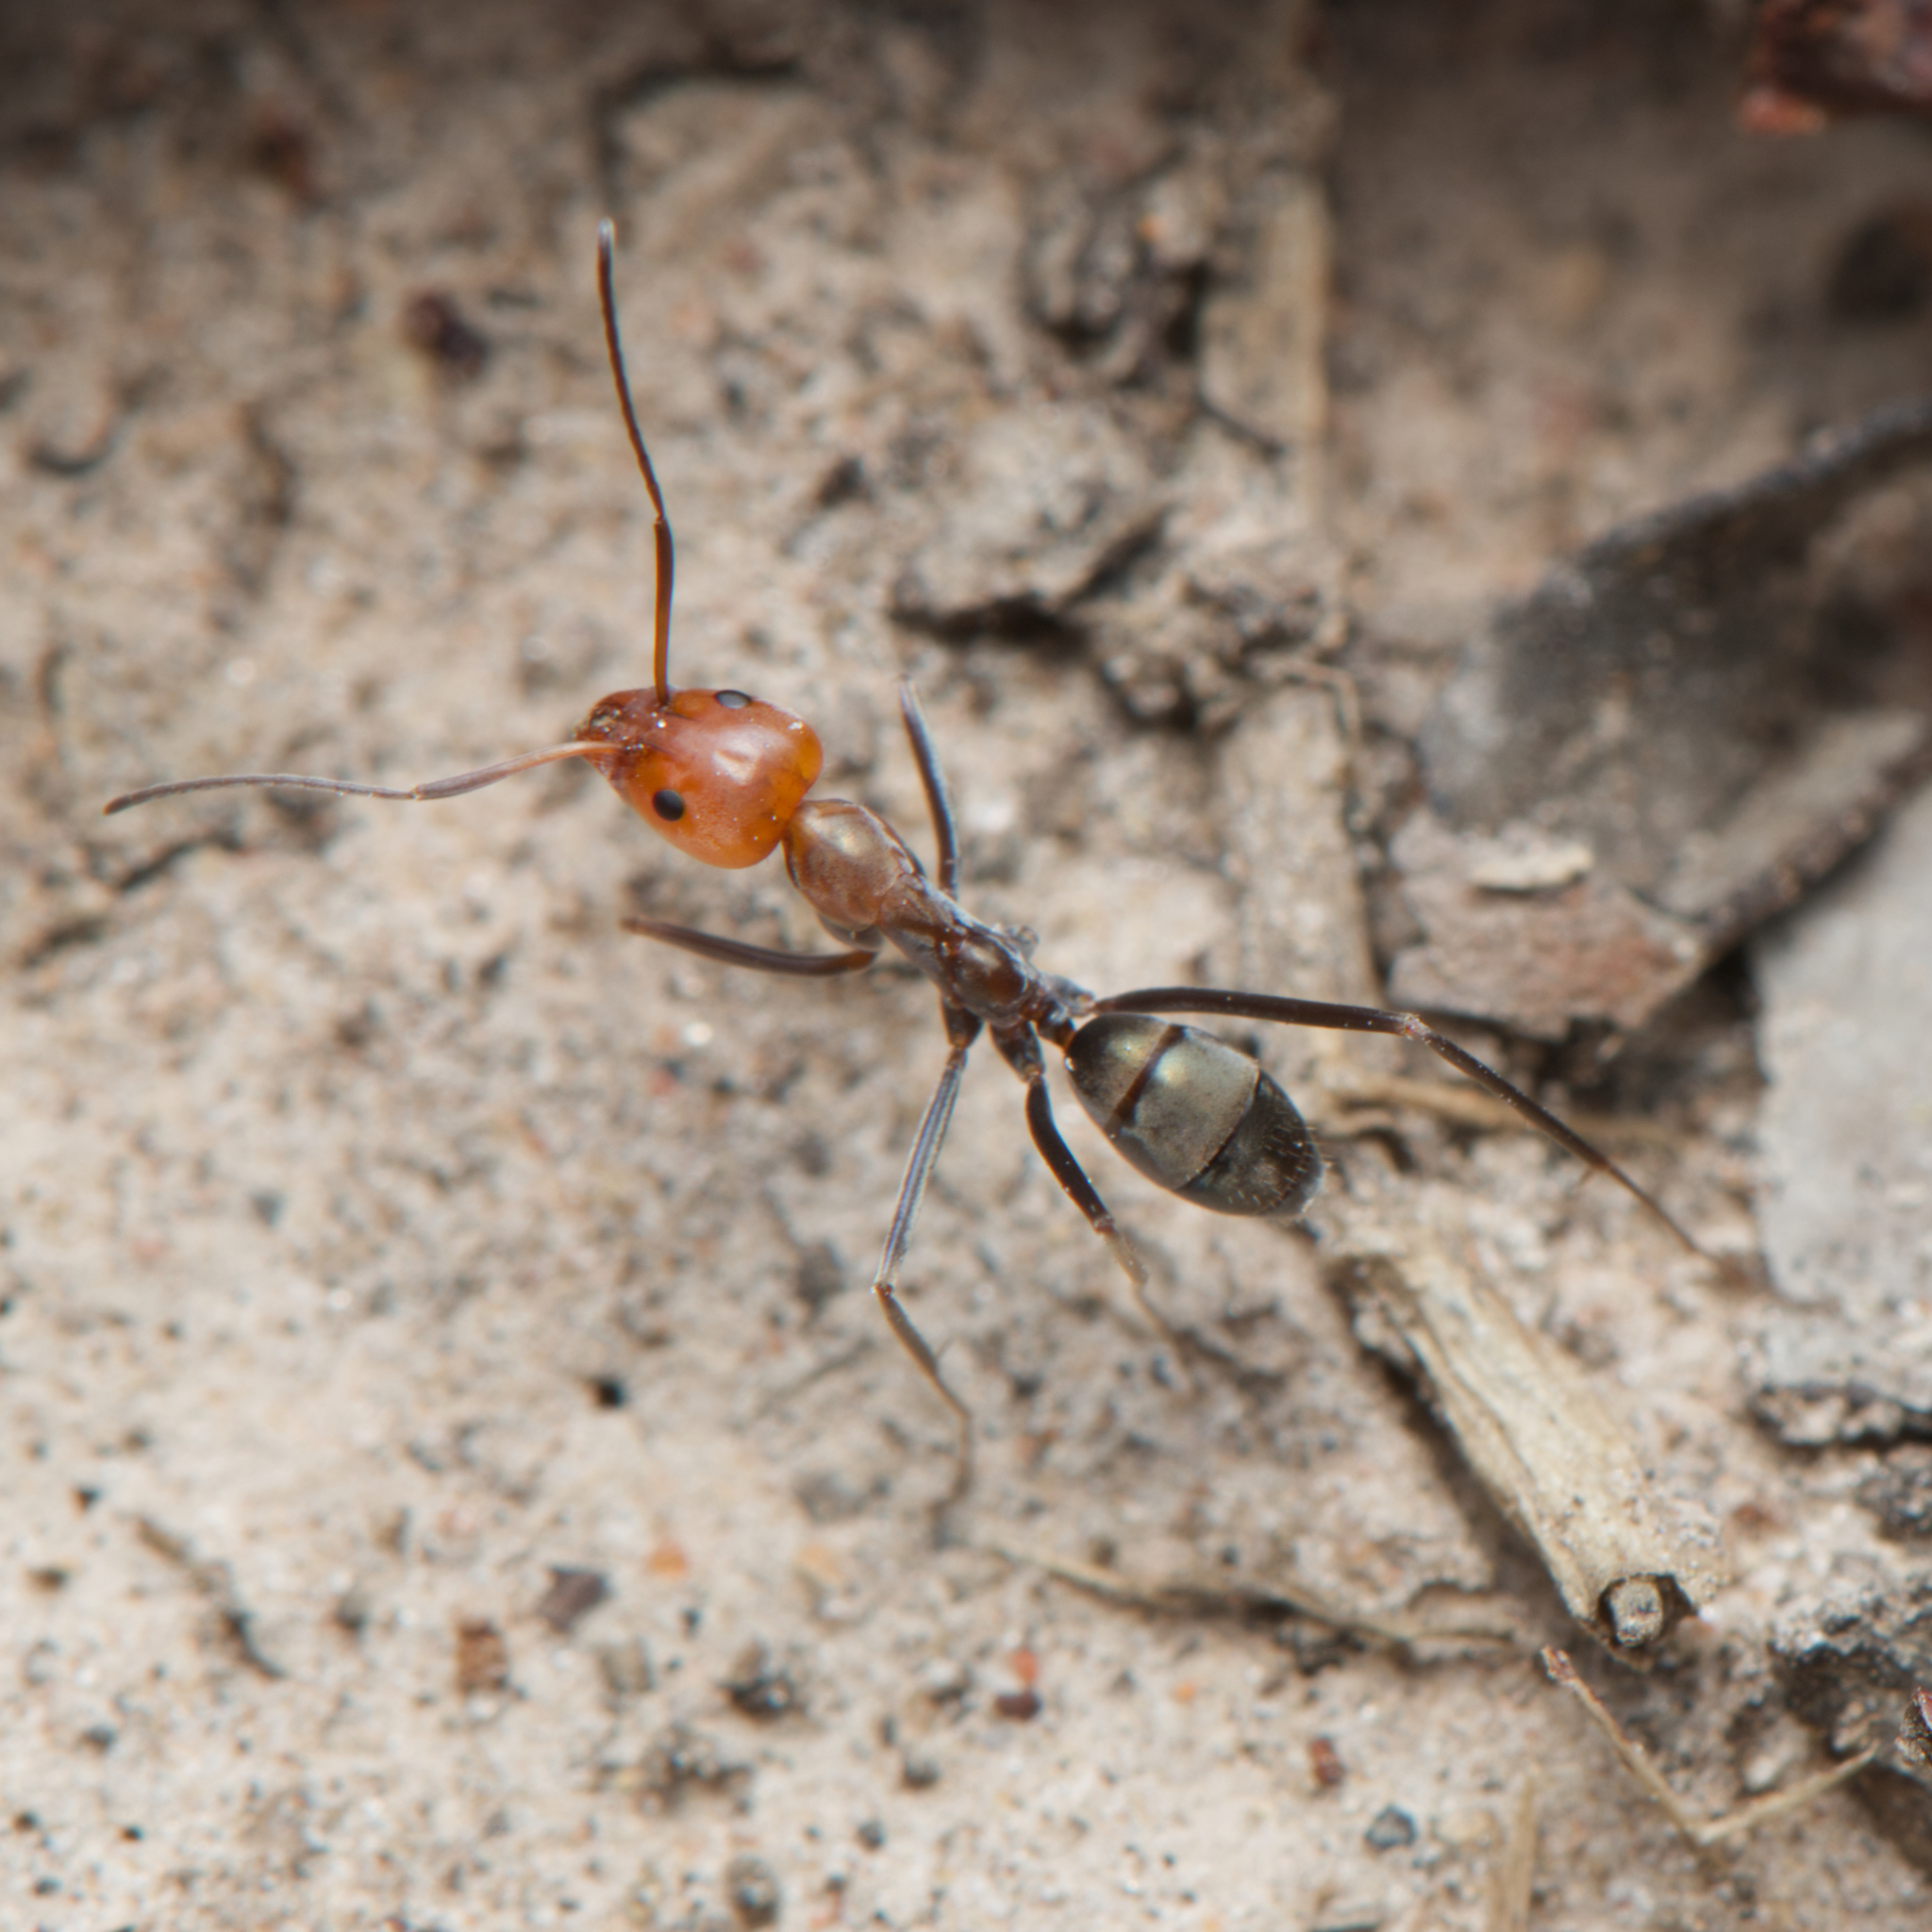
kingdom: Animalia
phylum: Arthropoda
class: Insecta
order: Hymenoptera
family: Formicidae
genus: Iridomyrmex
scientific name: Iridomyrmex
